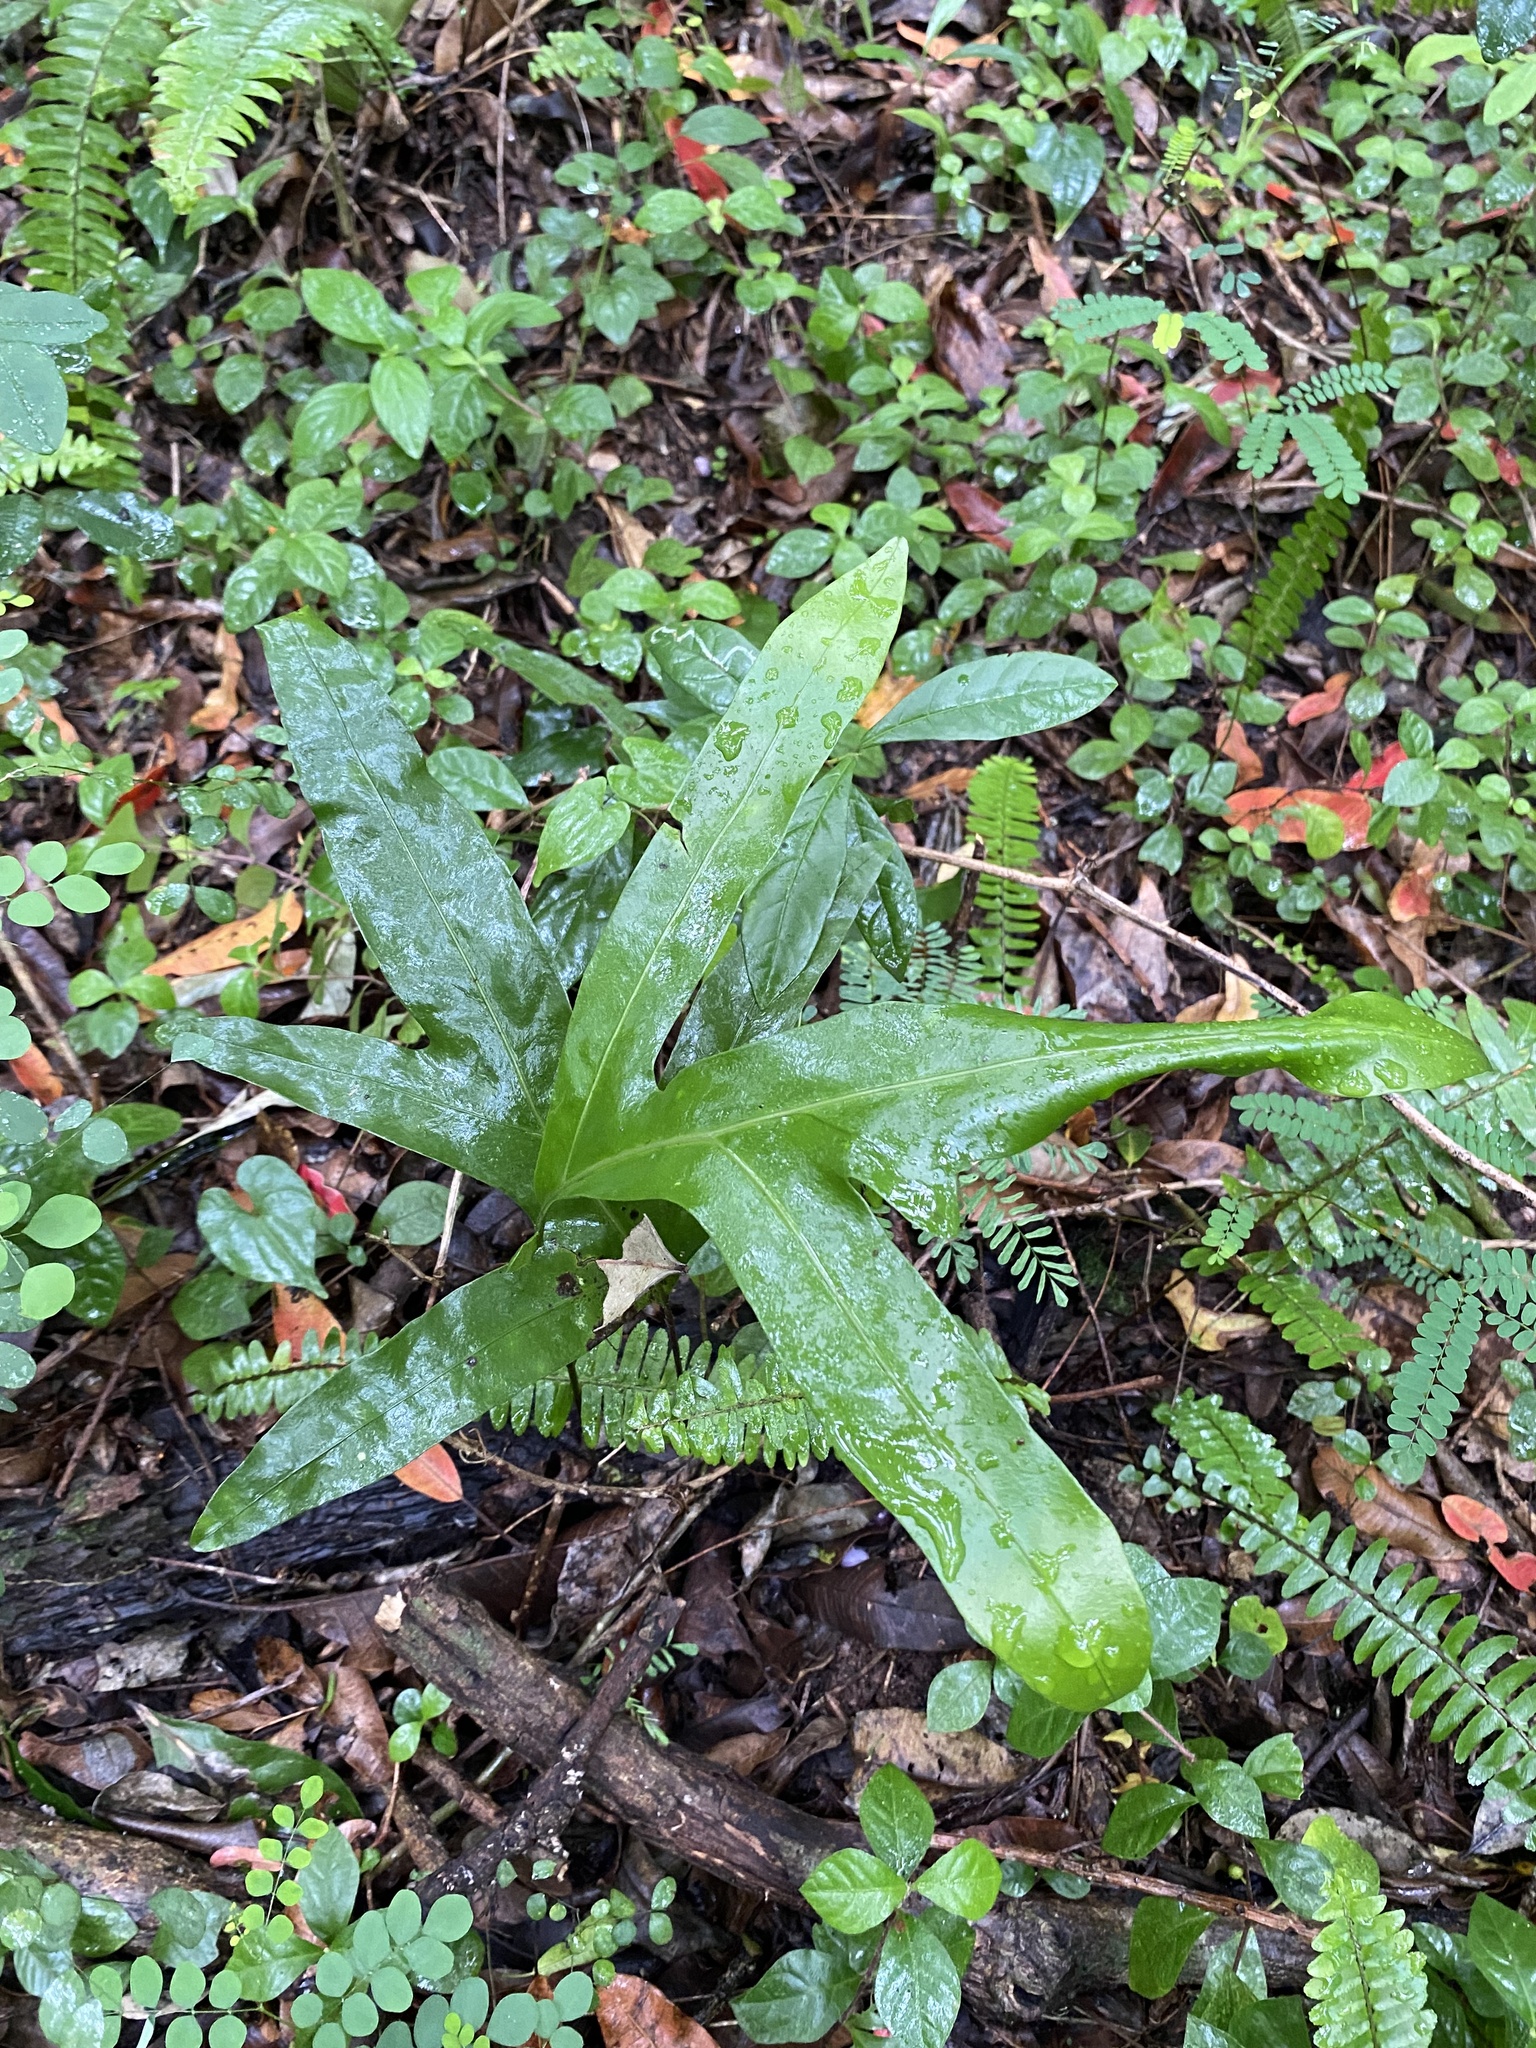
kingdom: Plantae
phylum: Tracheophyta
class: Polypodiopsida
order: Polypodiales
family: Polypodiaceae
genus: Microsorum
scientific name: Microsorum scolopendria
